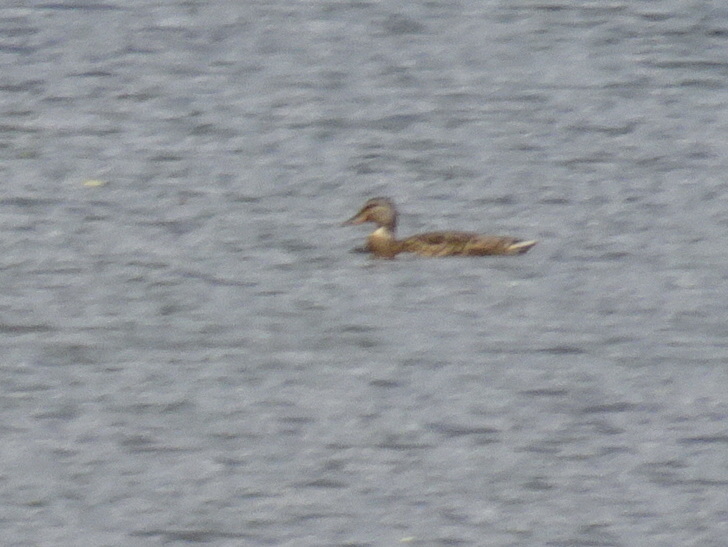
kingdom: Animalia
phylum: Chordata
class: Aves
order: Anseriformes
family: Anatidae
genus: Anas
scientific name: Anas platyrhynchos
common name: Mallard
